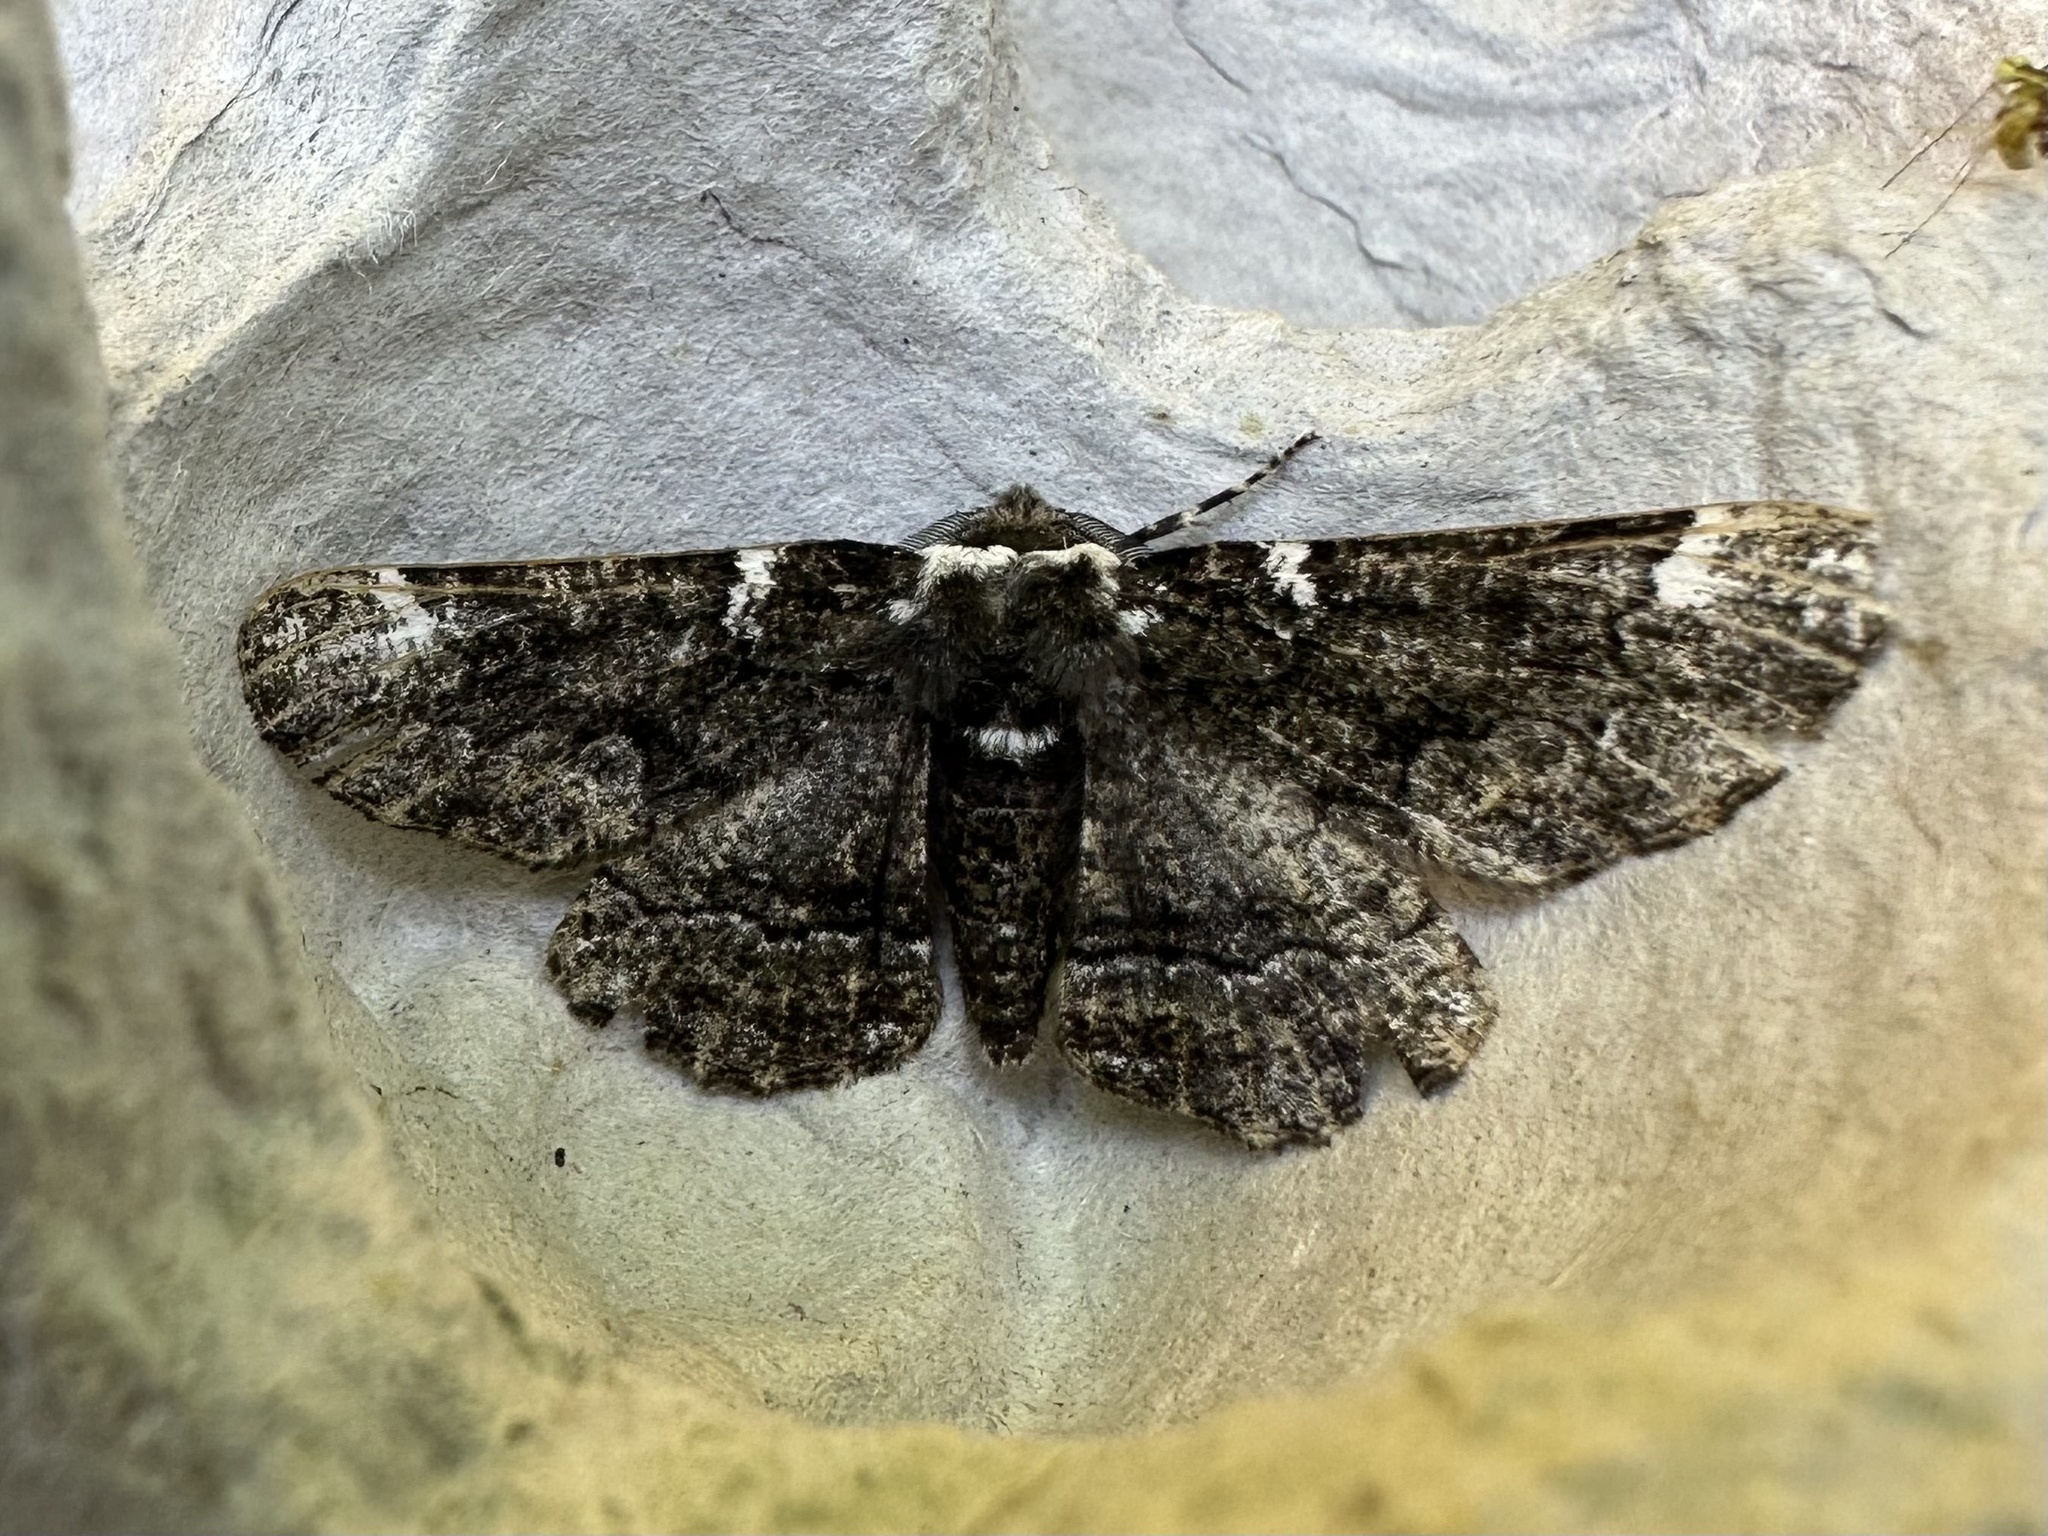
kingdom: Animalia
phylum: Arthropoda
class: Insecta
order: Lepidoptera
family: Geometridae
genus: Phaeoura
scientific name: Phaeoura quernaria
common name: Oak beauty
